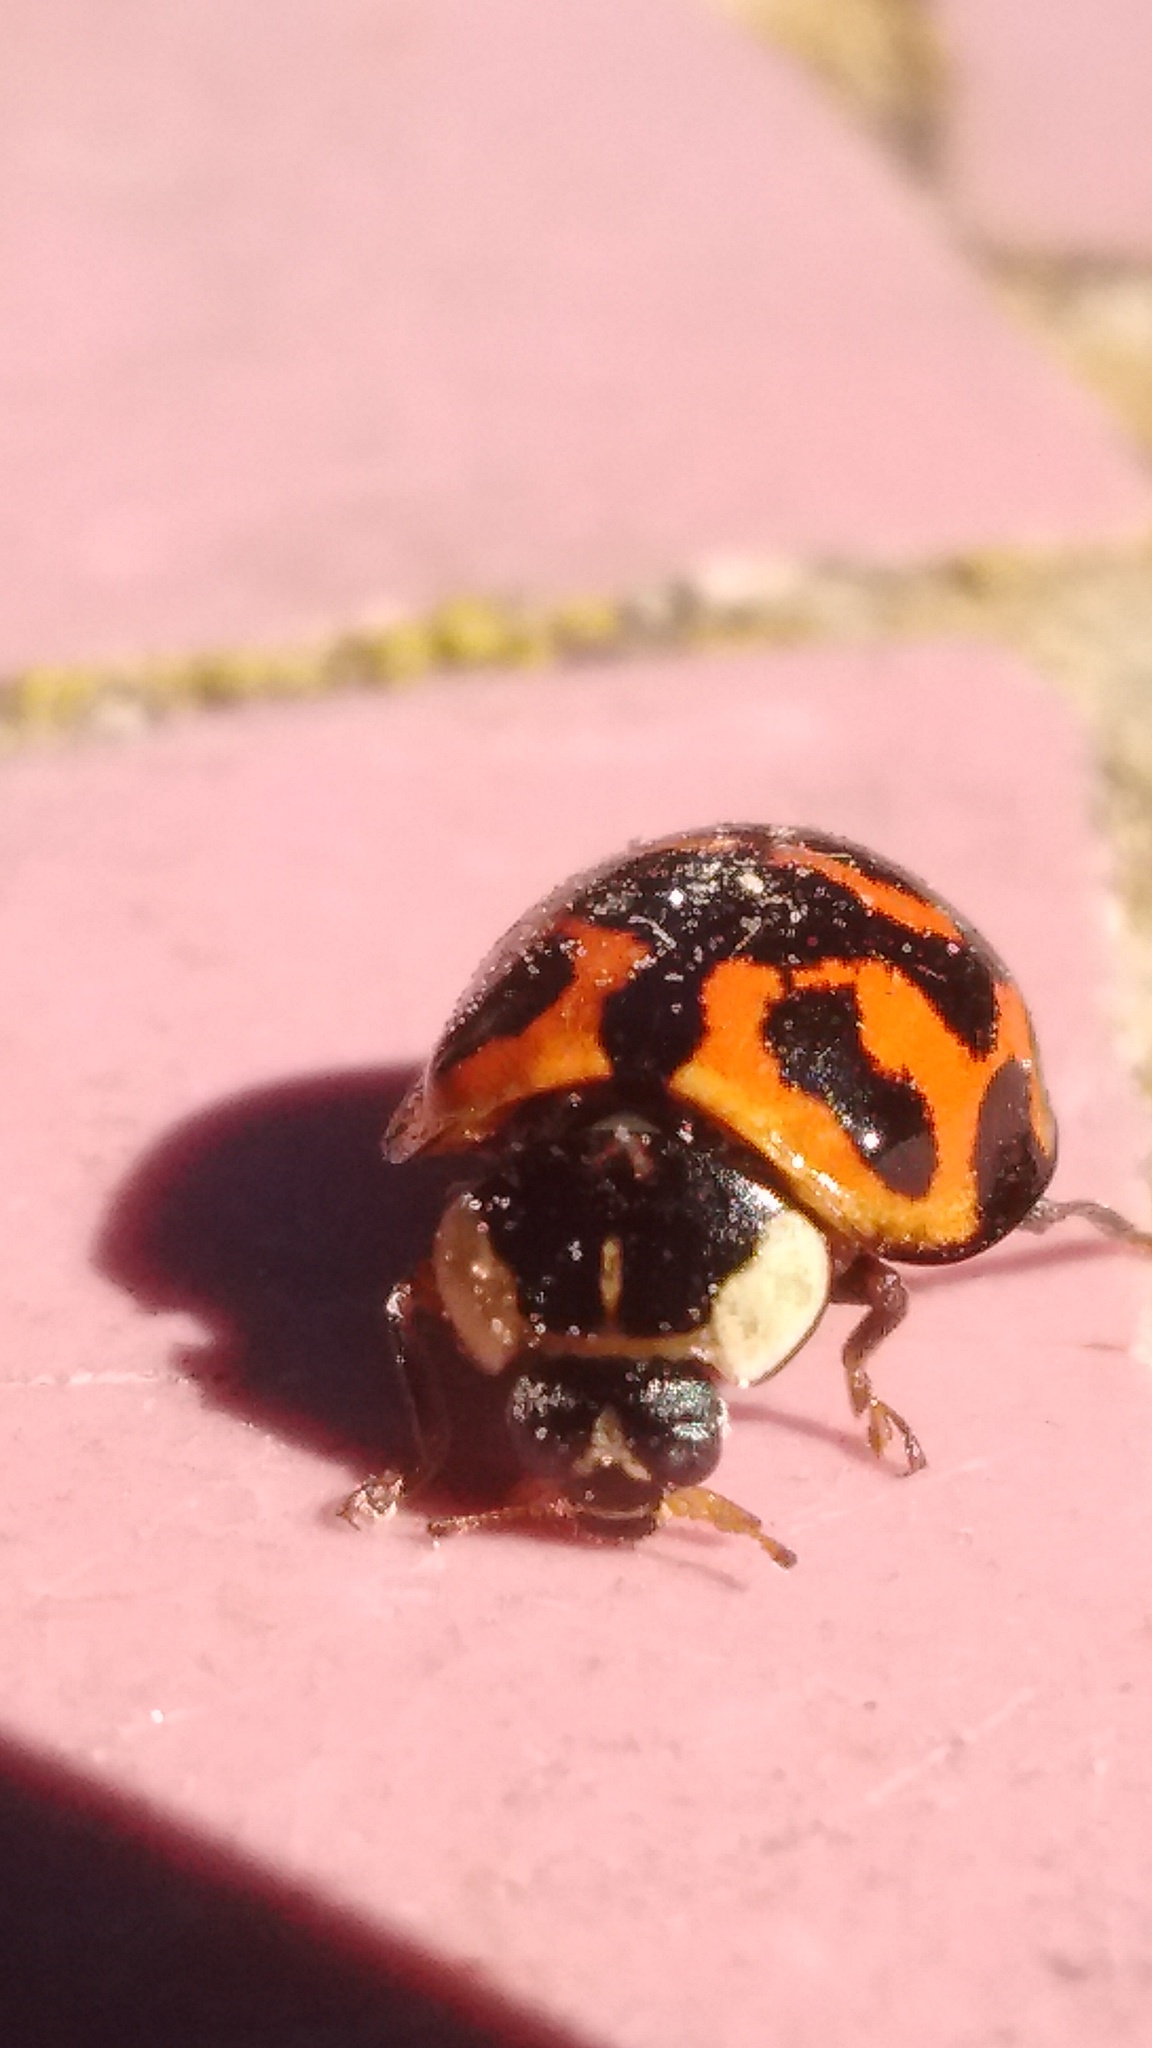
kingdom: Animalia
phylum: Arthropoda
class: Insecta
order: Coleoptera
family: Coccinellidae
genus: Harmonia
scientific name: Harmonia axyridis
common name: Harlequin ladybird
